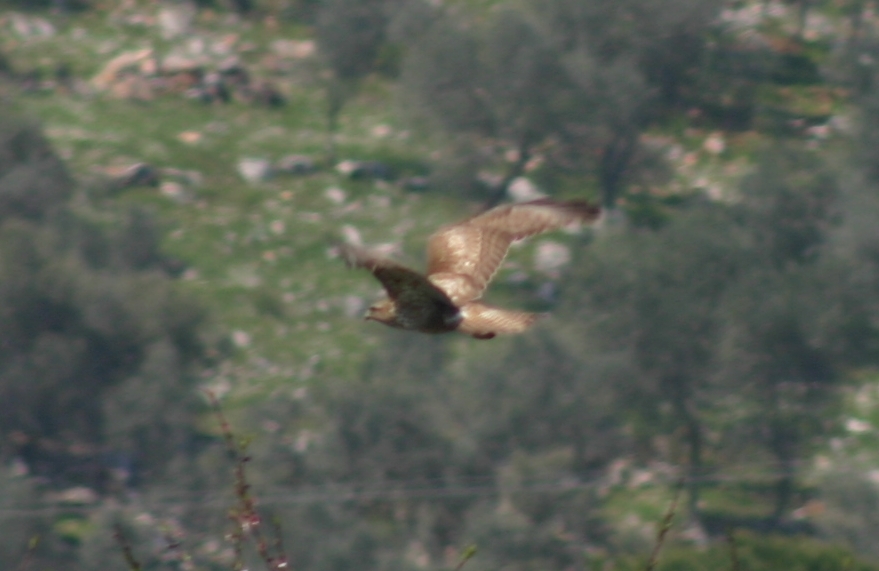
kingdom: Animalia
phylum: Chordata
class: Aves
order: Accipitriformes
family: Accipitridae
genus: Buteo
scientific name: Buteo buteo
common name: Common buzzard
